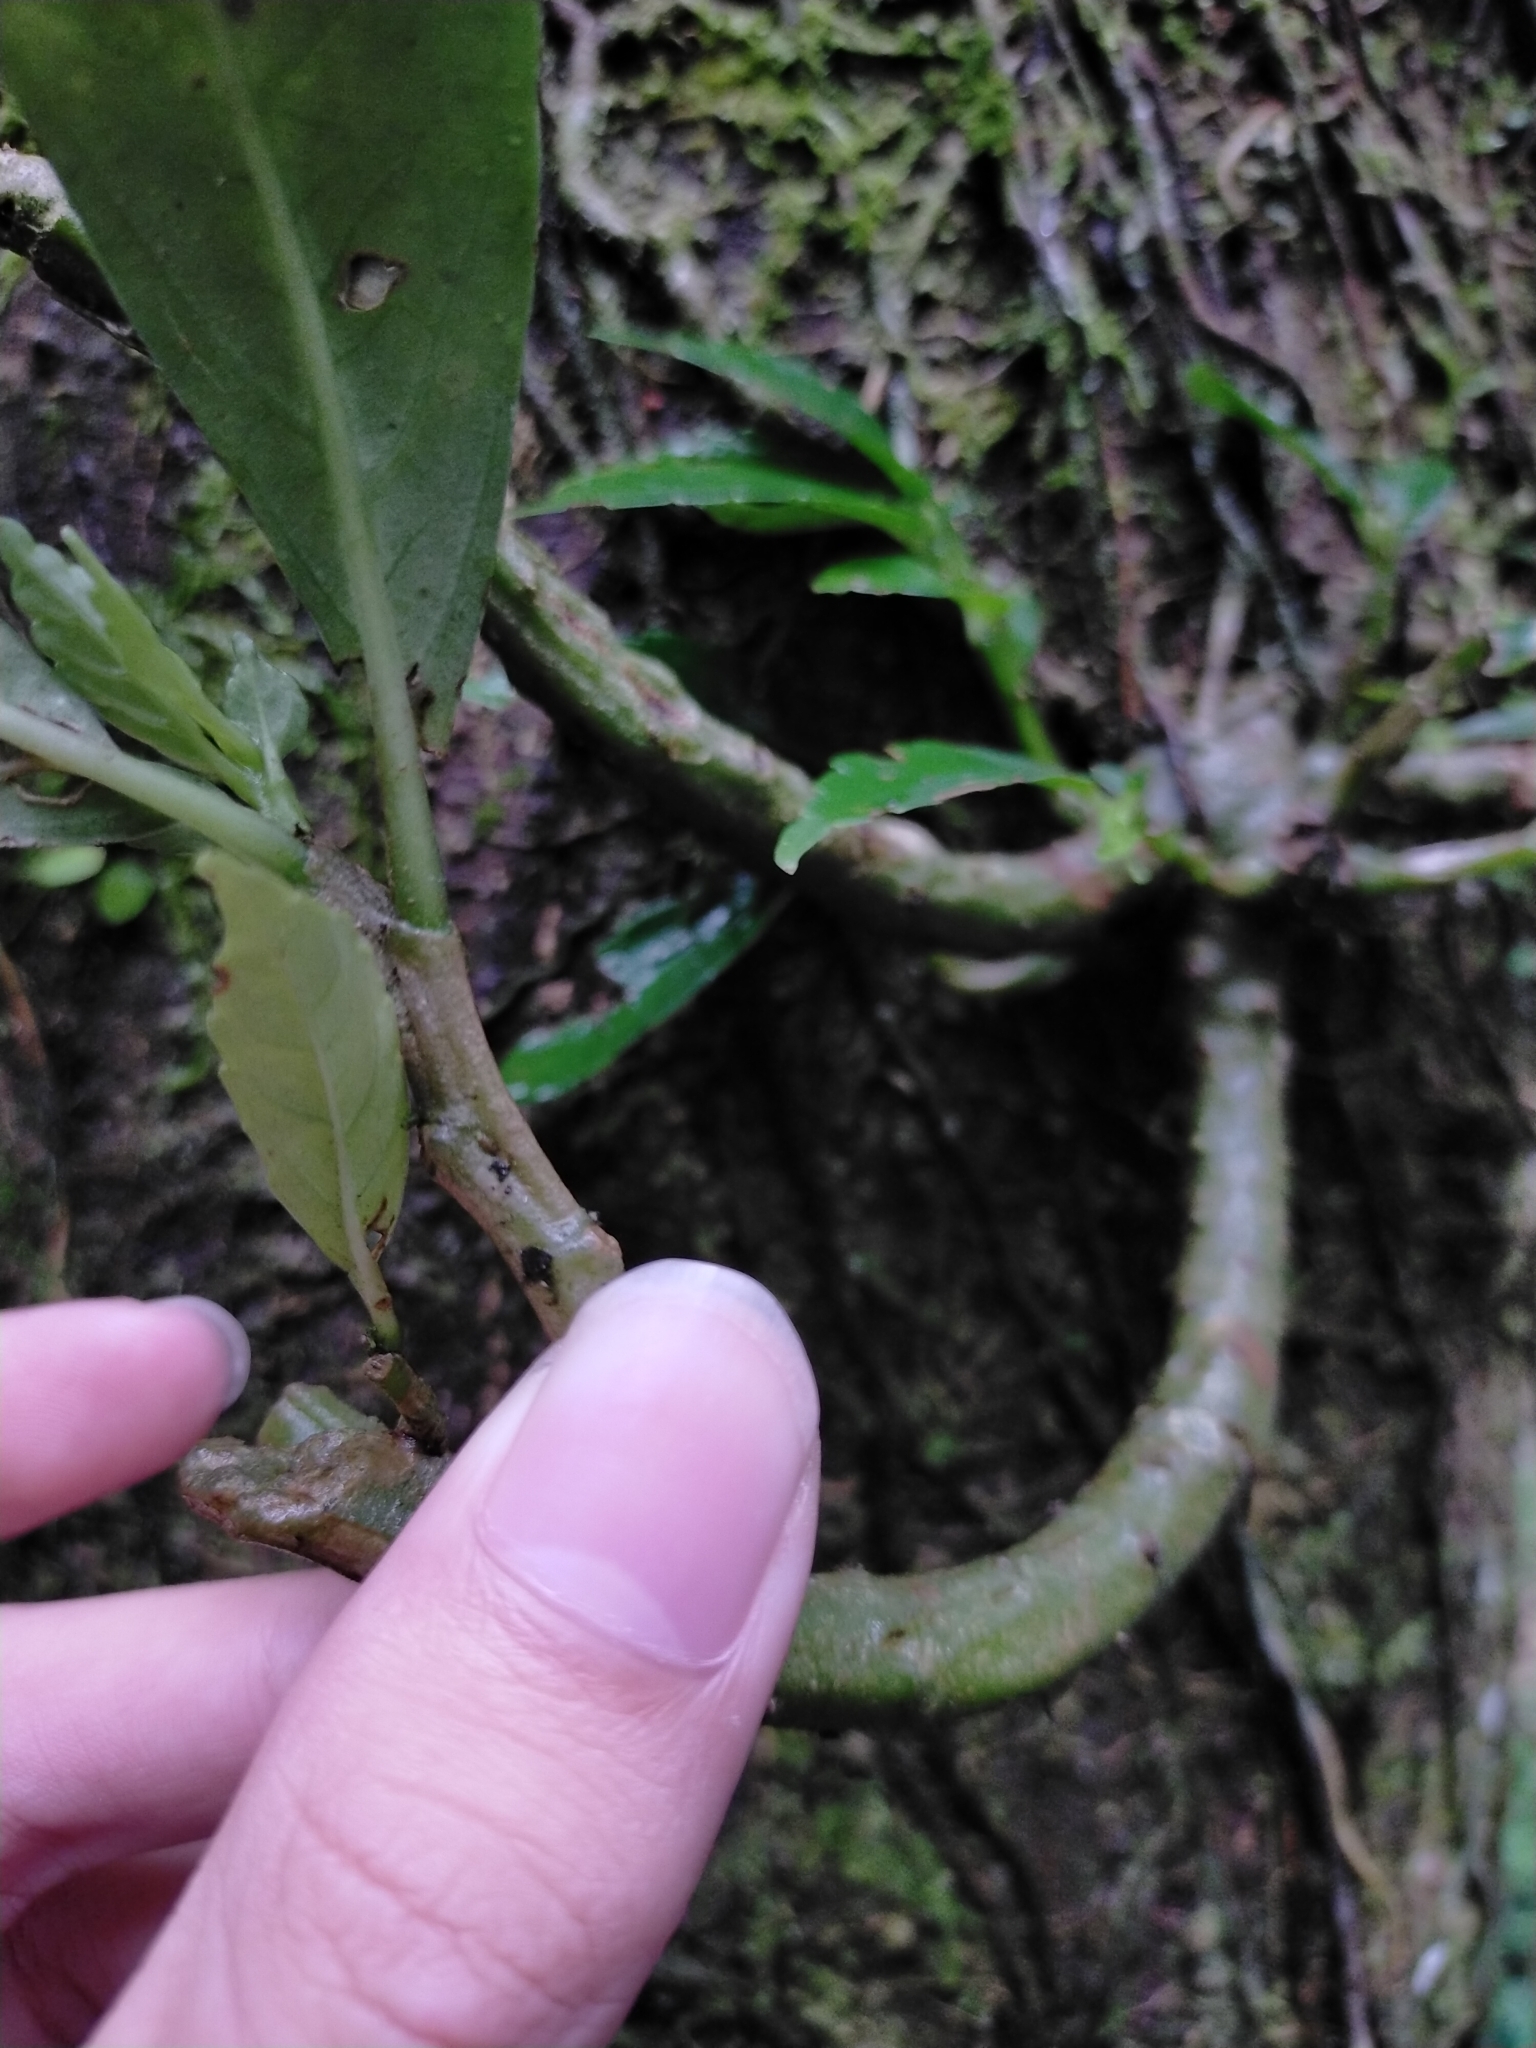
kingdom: Plantae
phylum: Tracheophyta
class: Magnoliopsida
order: Rosales
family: Urticaceae
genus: Procris
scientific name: Procris
